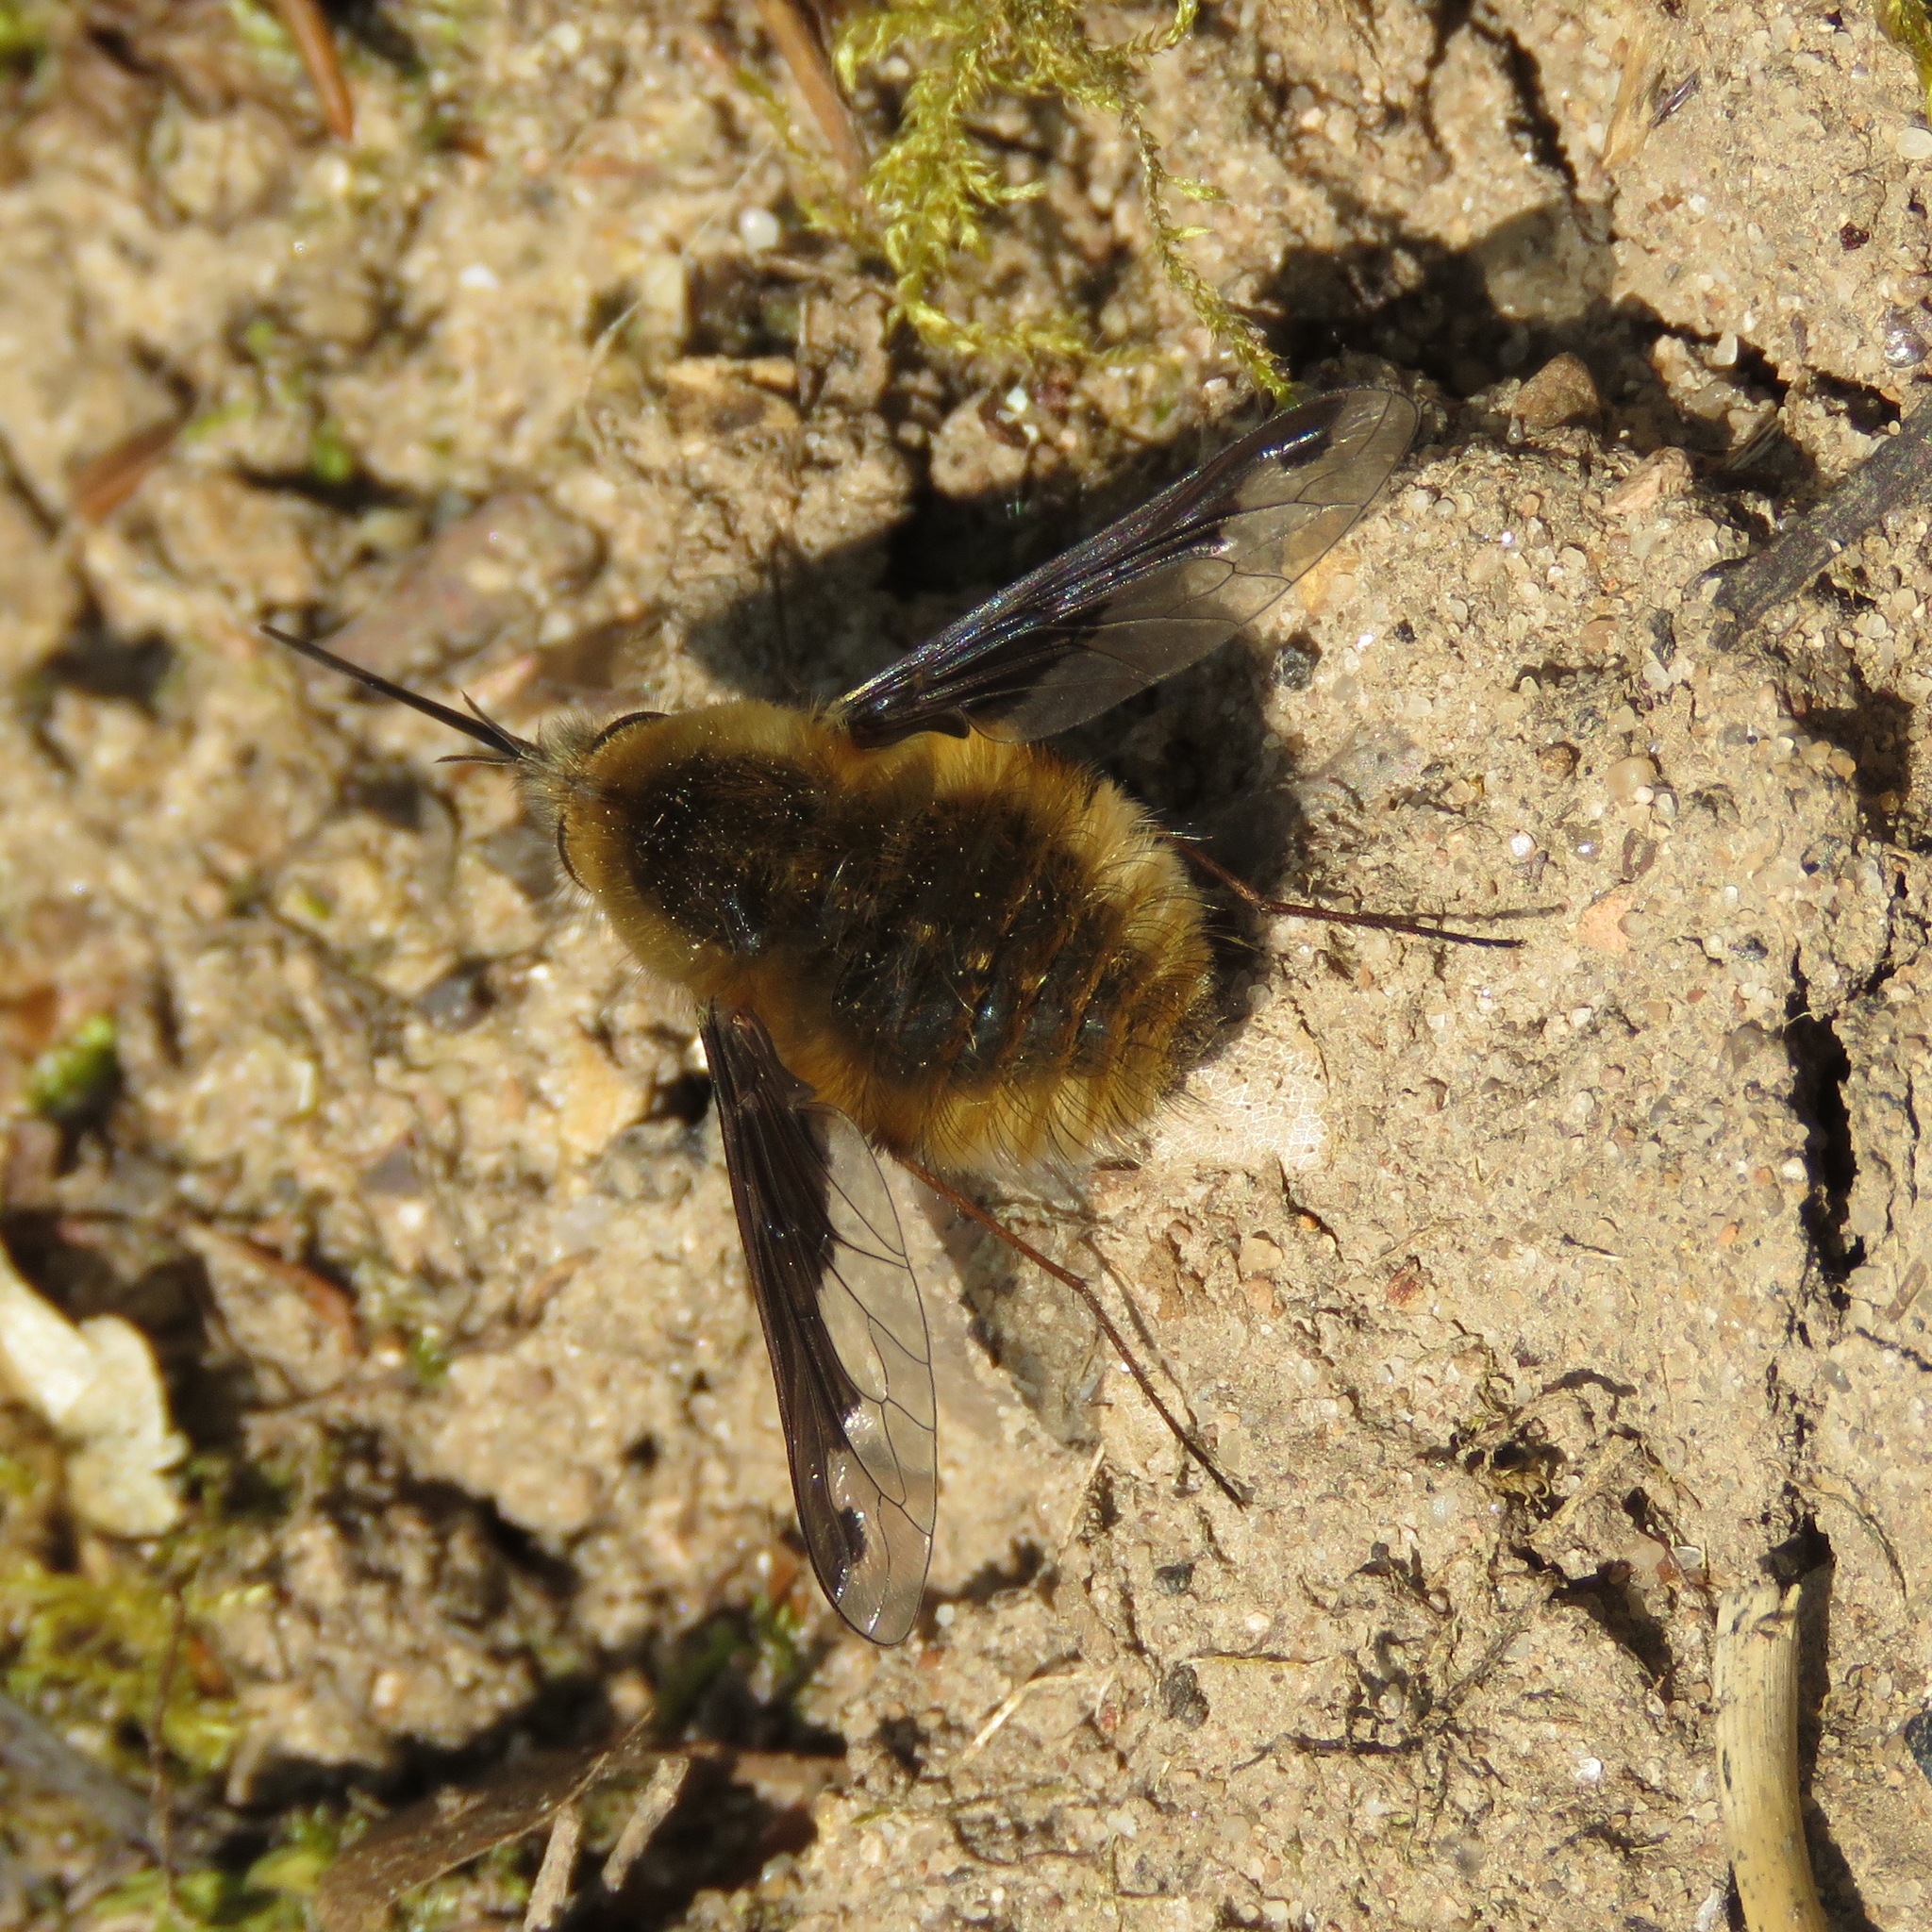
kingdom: Animalia
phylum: Arthropoda
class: Insecta
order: Diptera
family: Bombyliidae
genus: Bombylius
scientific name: Bombylius major
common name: Bee fly
